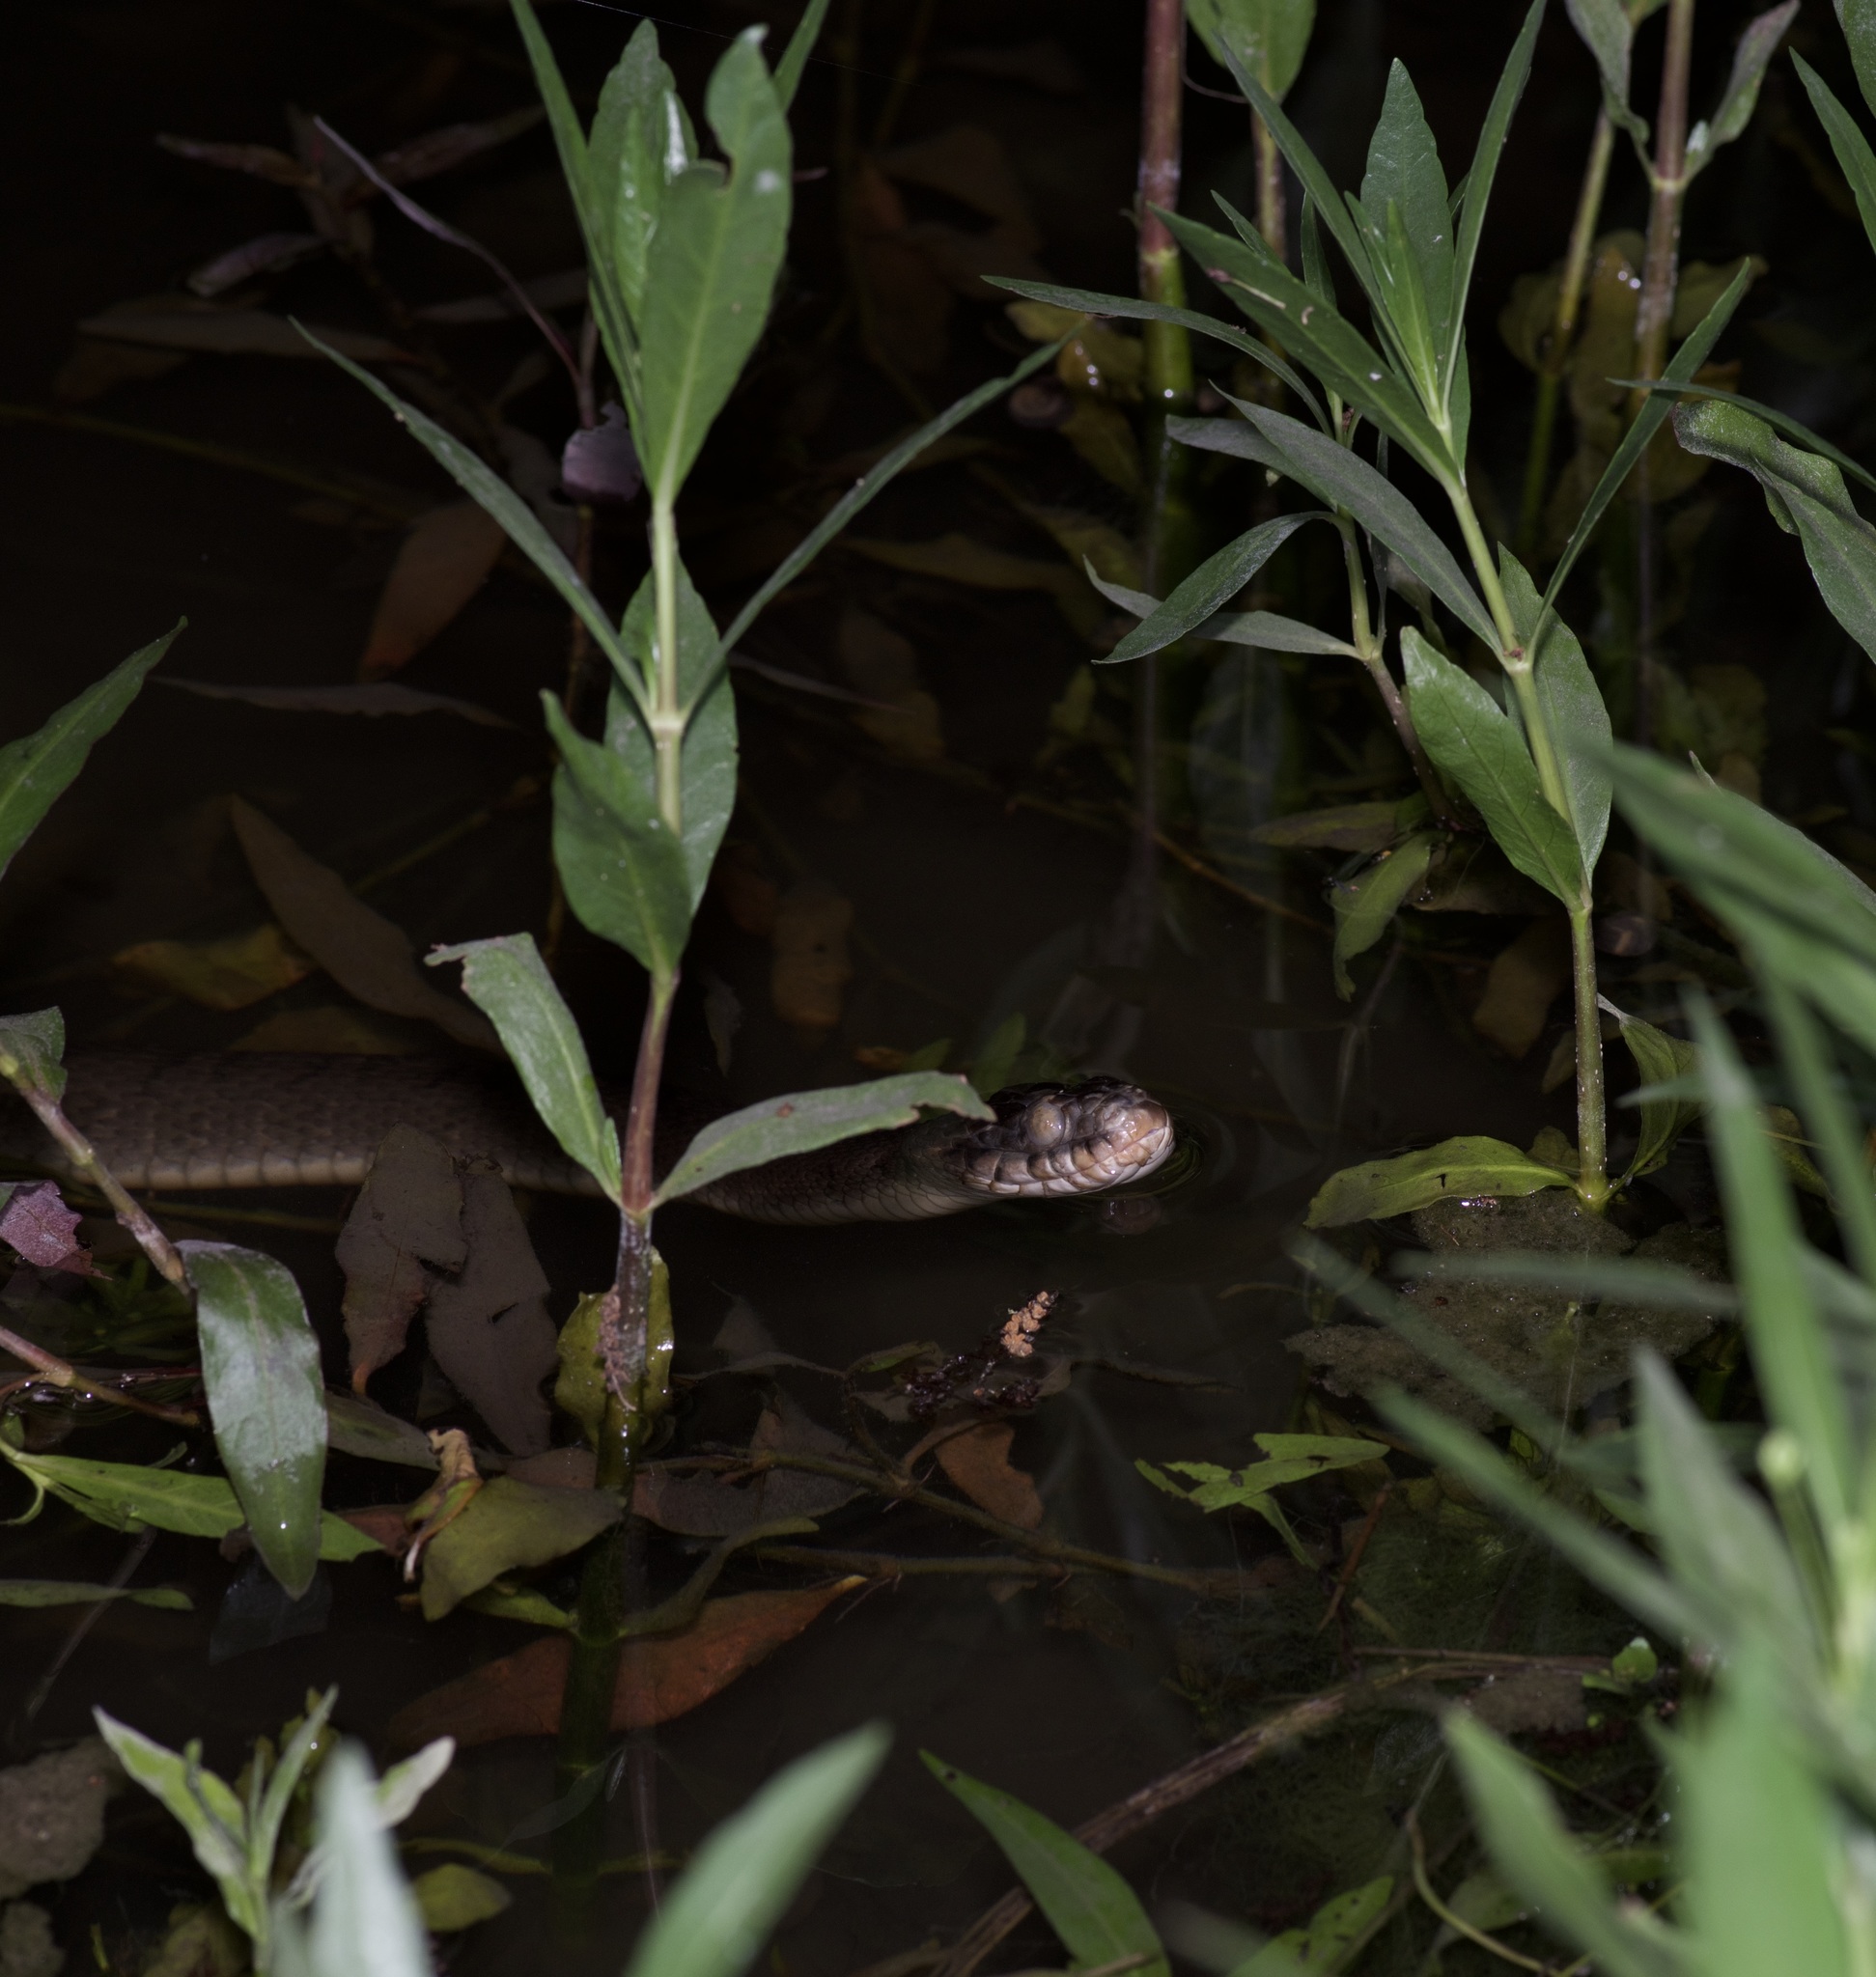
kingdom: Animalia
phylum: Chordata
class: Squamata
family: Colubridae
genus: Nerodia
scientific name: Nerodia erythrogaster
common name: Plainbelly water snake
